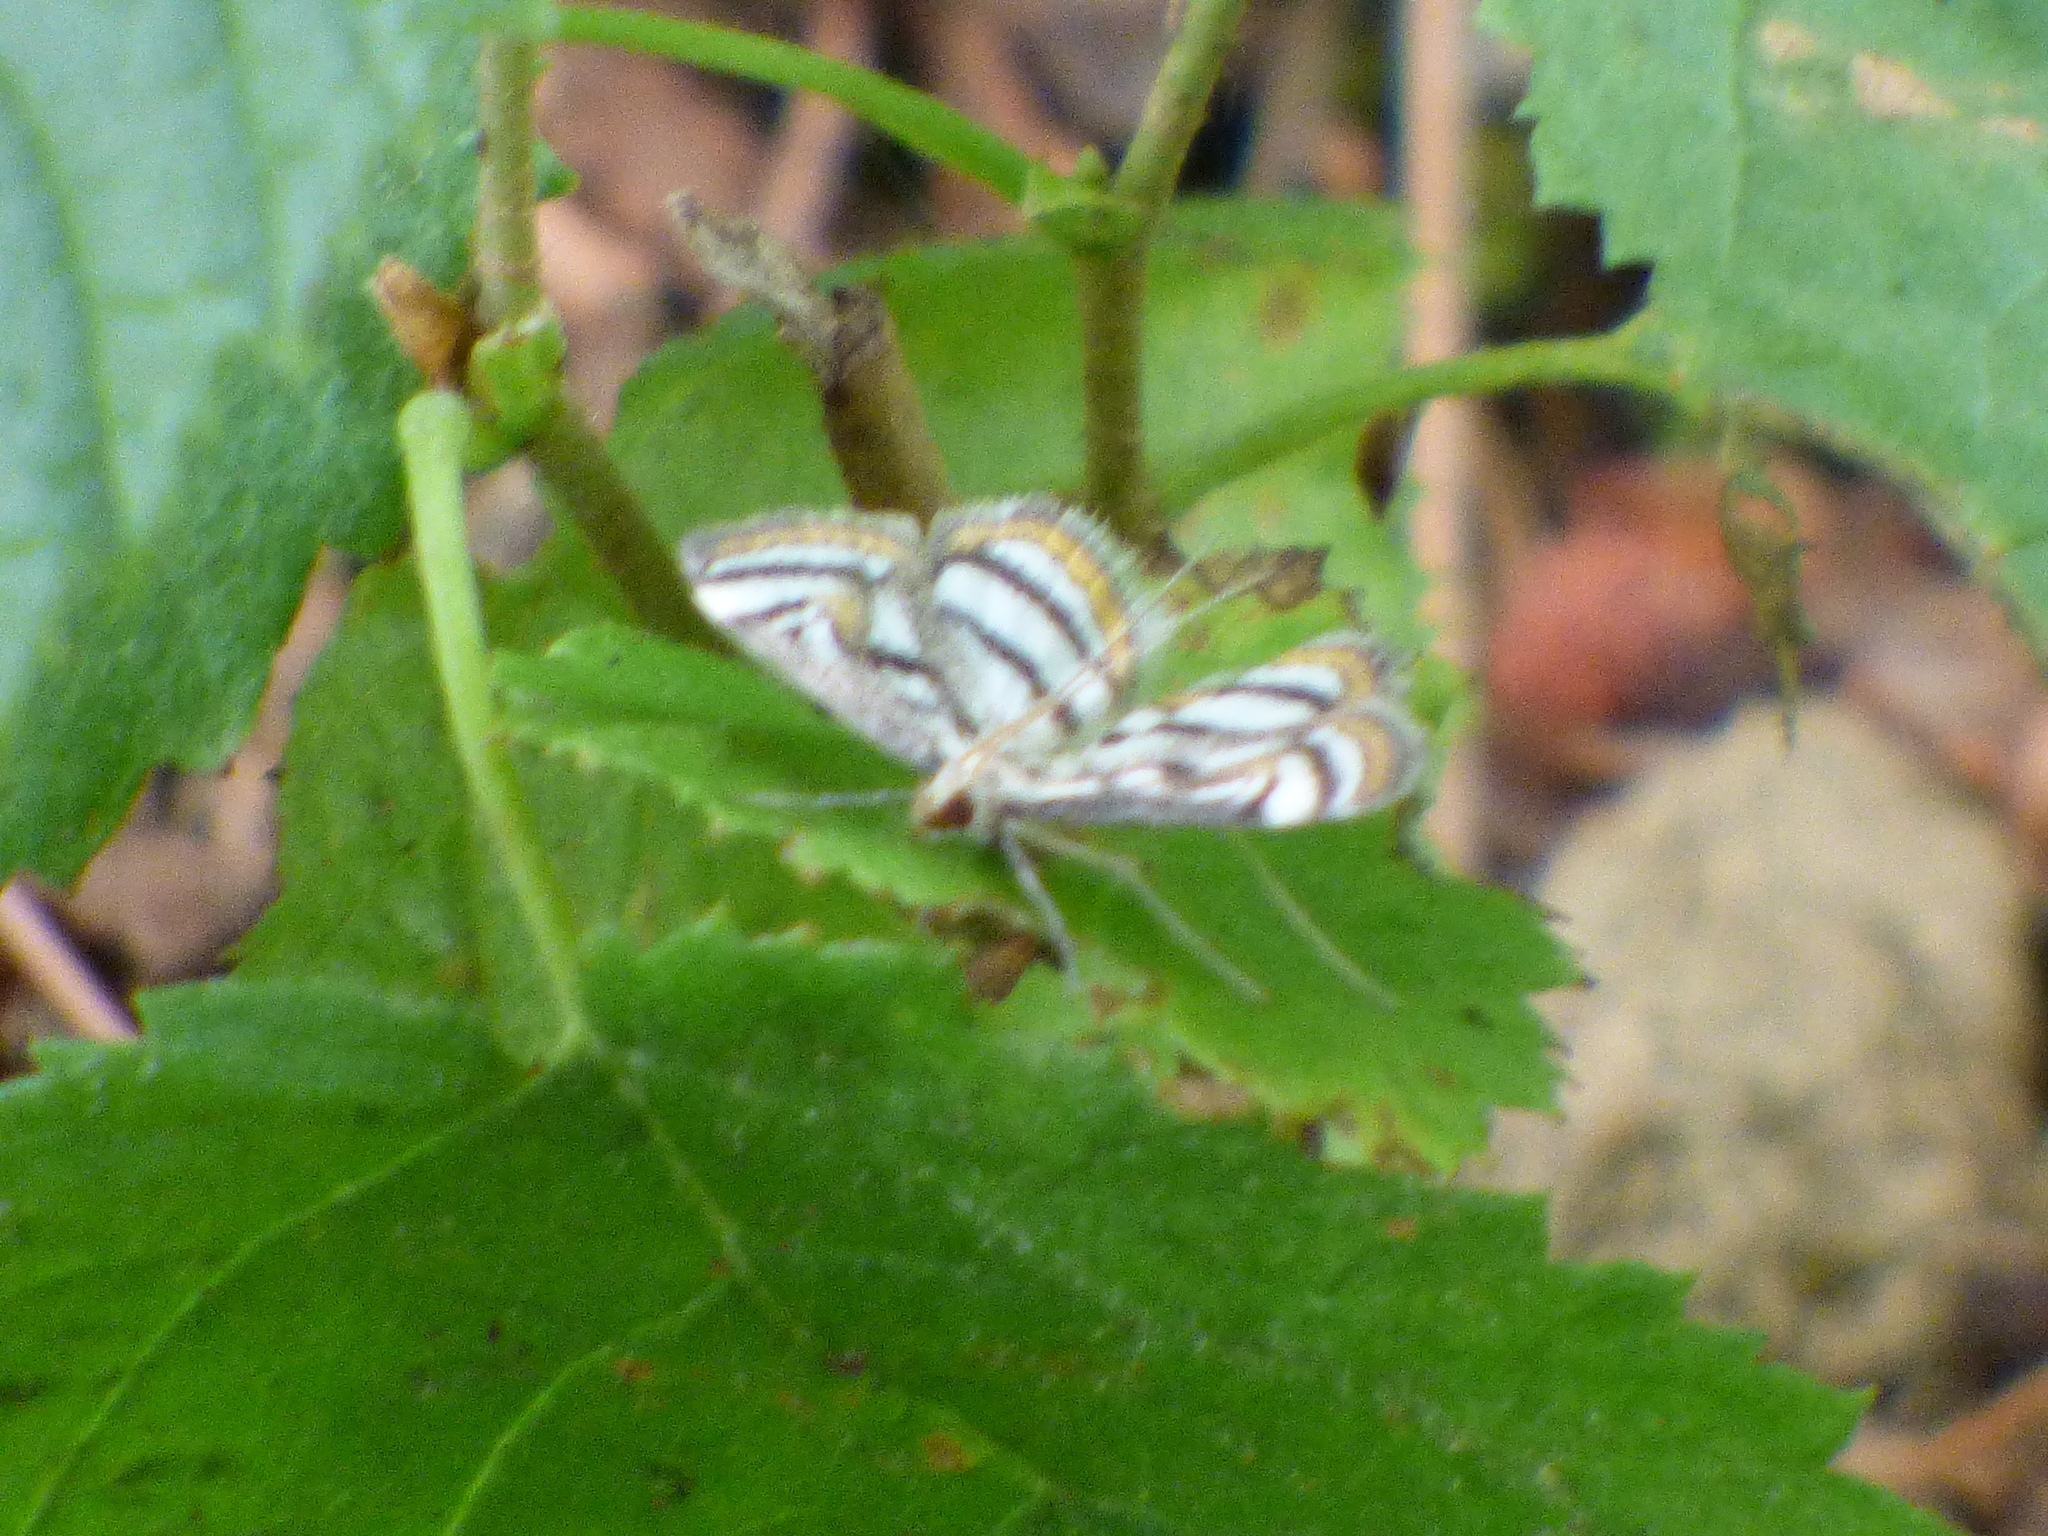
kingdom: Animalia
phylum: Arthropoda
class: Insecta
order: Lepidoptera
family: Crambidae
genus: Parapoynx
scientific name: Parapoynx badiusalis
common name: Chestnut-marked pondweed moth
